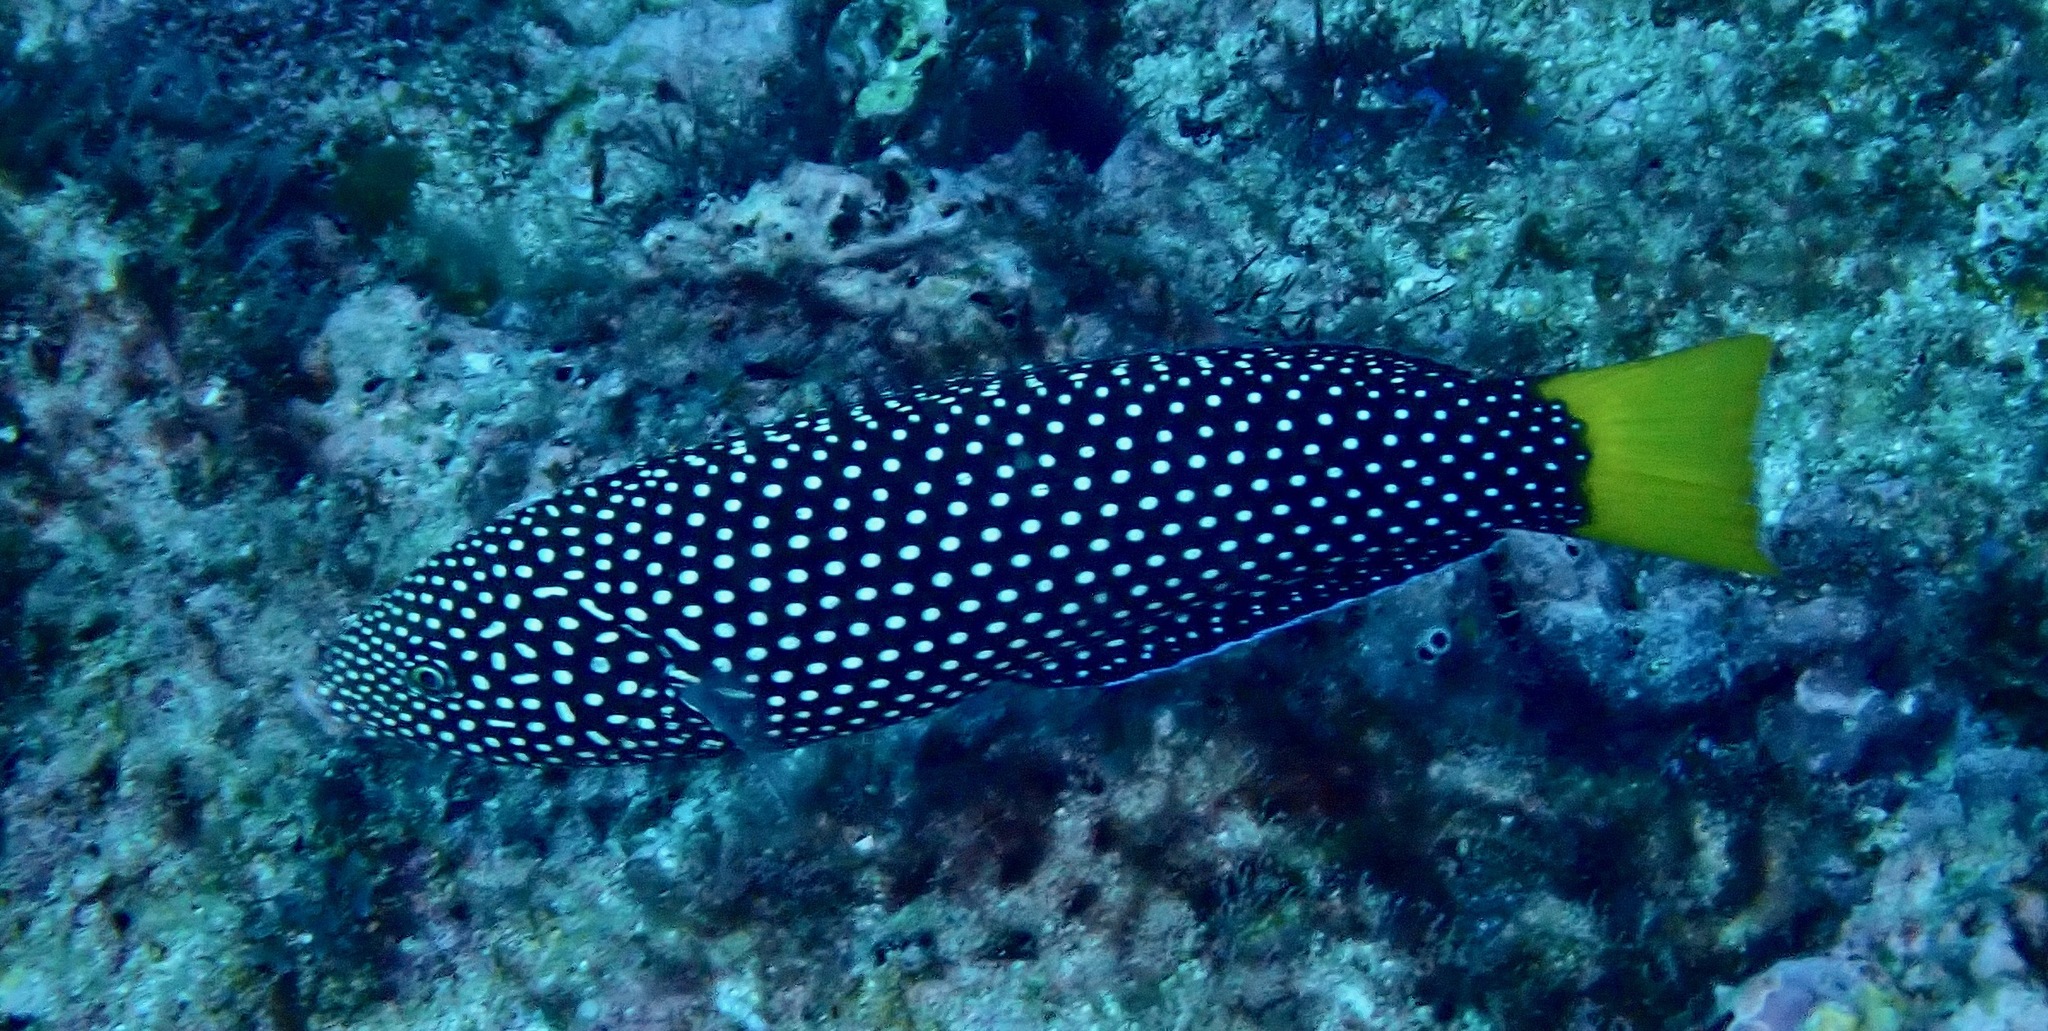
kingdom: Animalia
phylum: Chordata
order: Perciformes
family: Labridae
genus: Anampses
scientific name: Anampses meleagrides
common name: Yellowtail wrasse
